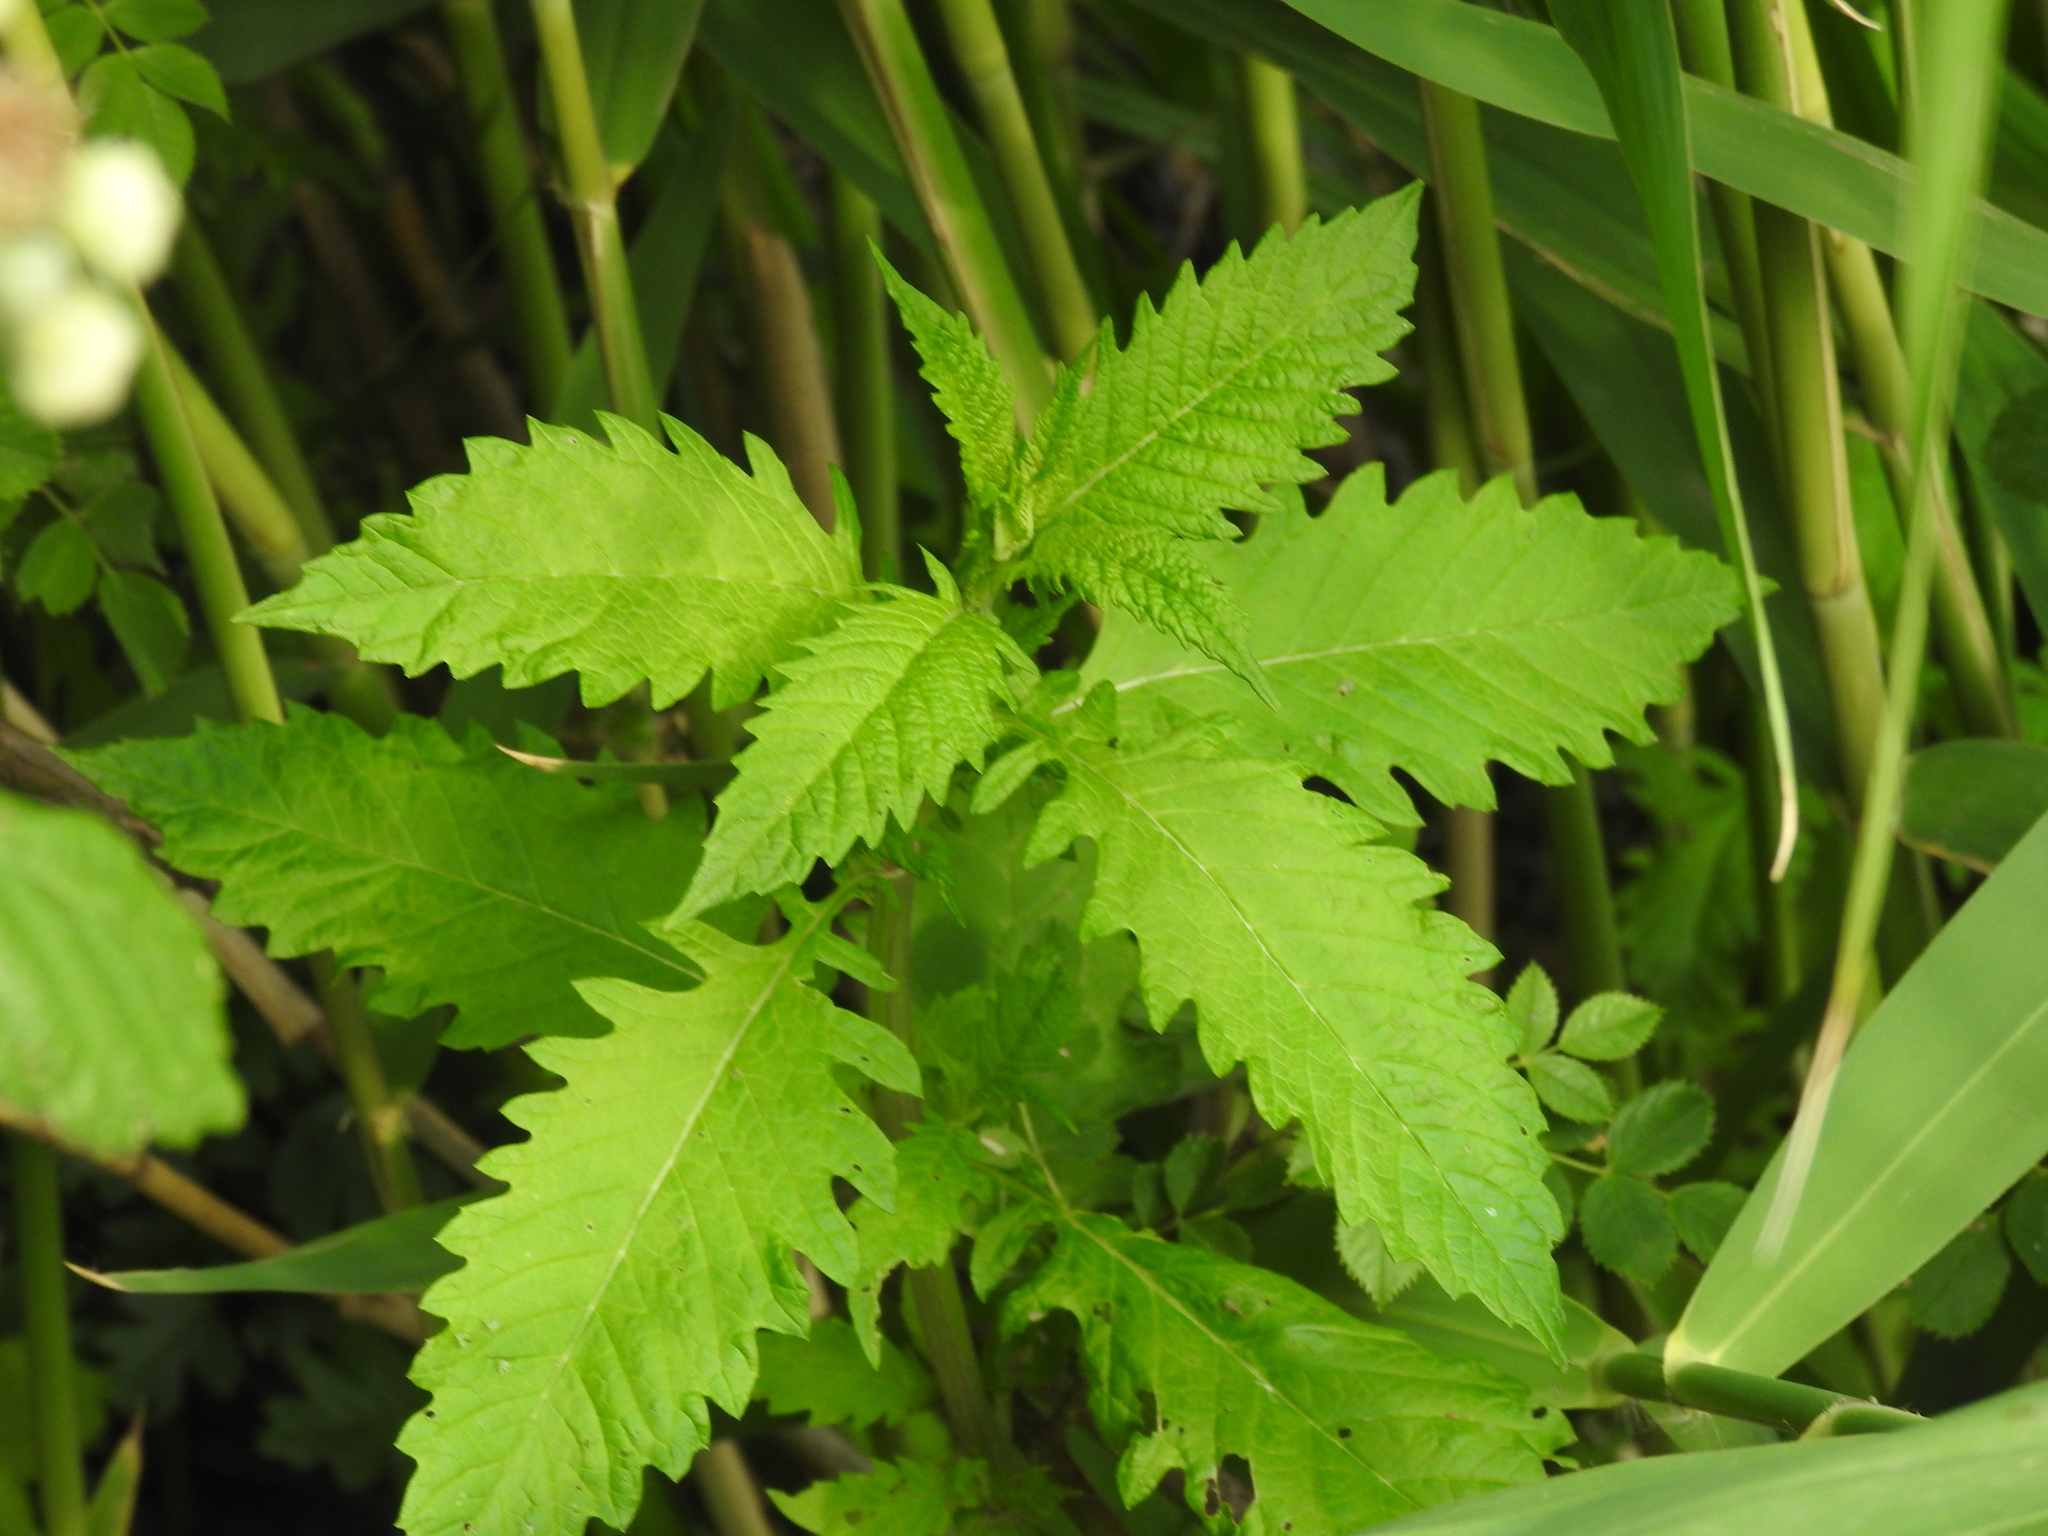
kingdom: Plantae
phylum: Tracheophyta
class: Magnoliopsida
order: Lamiales
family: Lamiaceae
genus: Lycopus
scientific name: Lycopus europaeus
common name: European bugleweed
